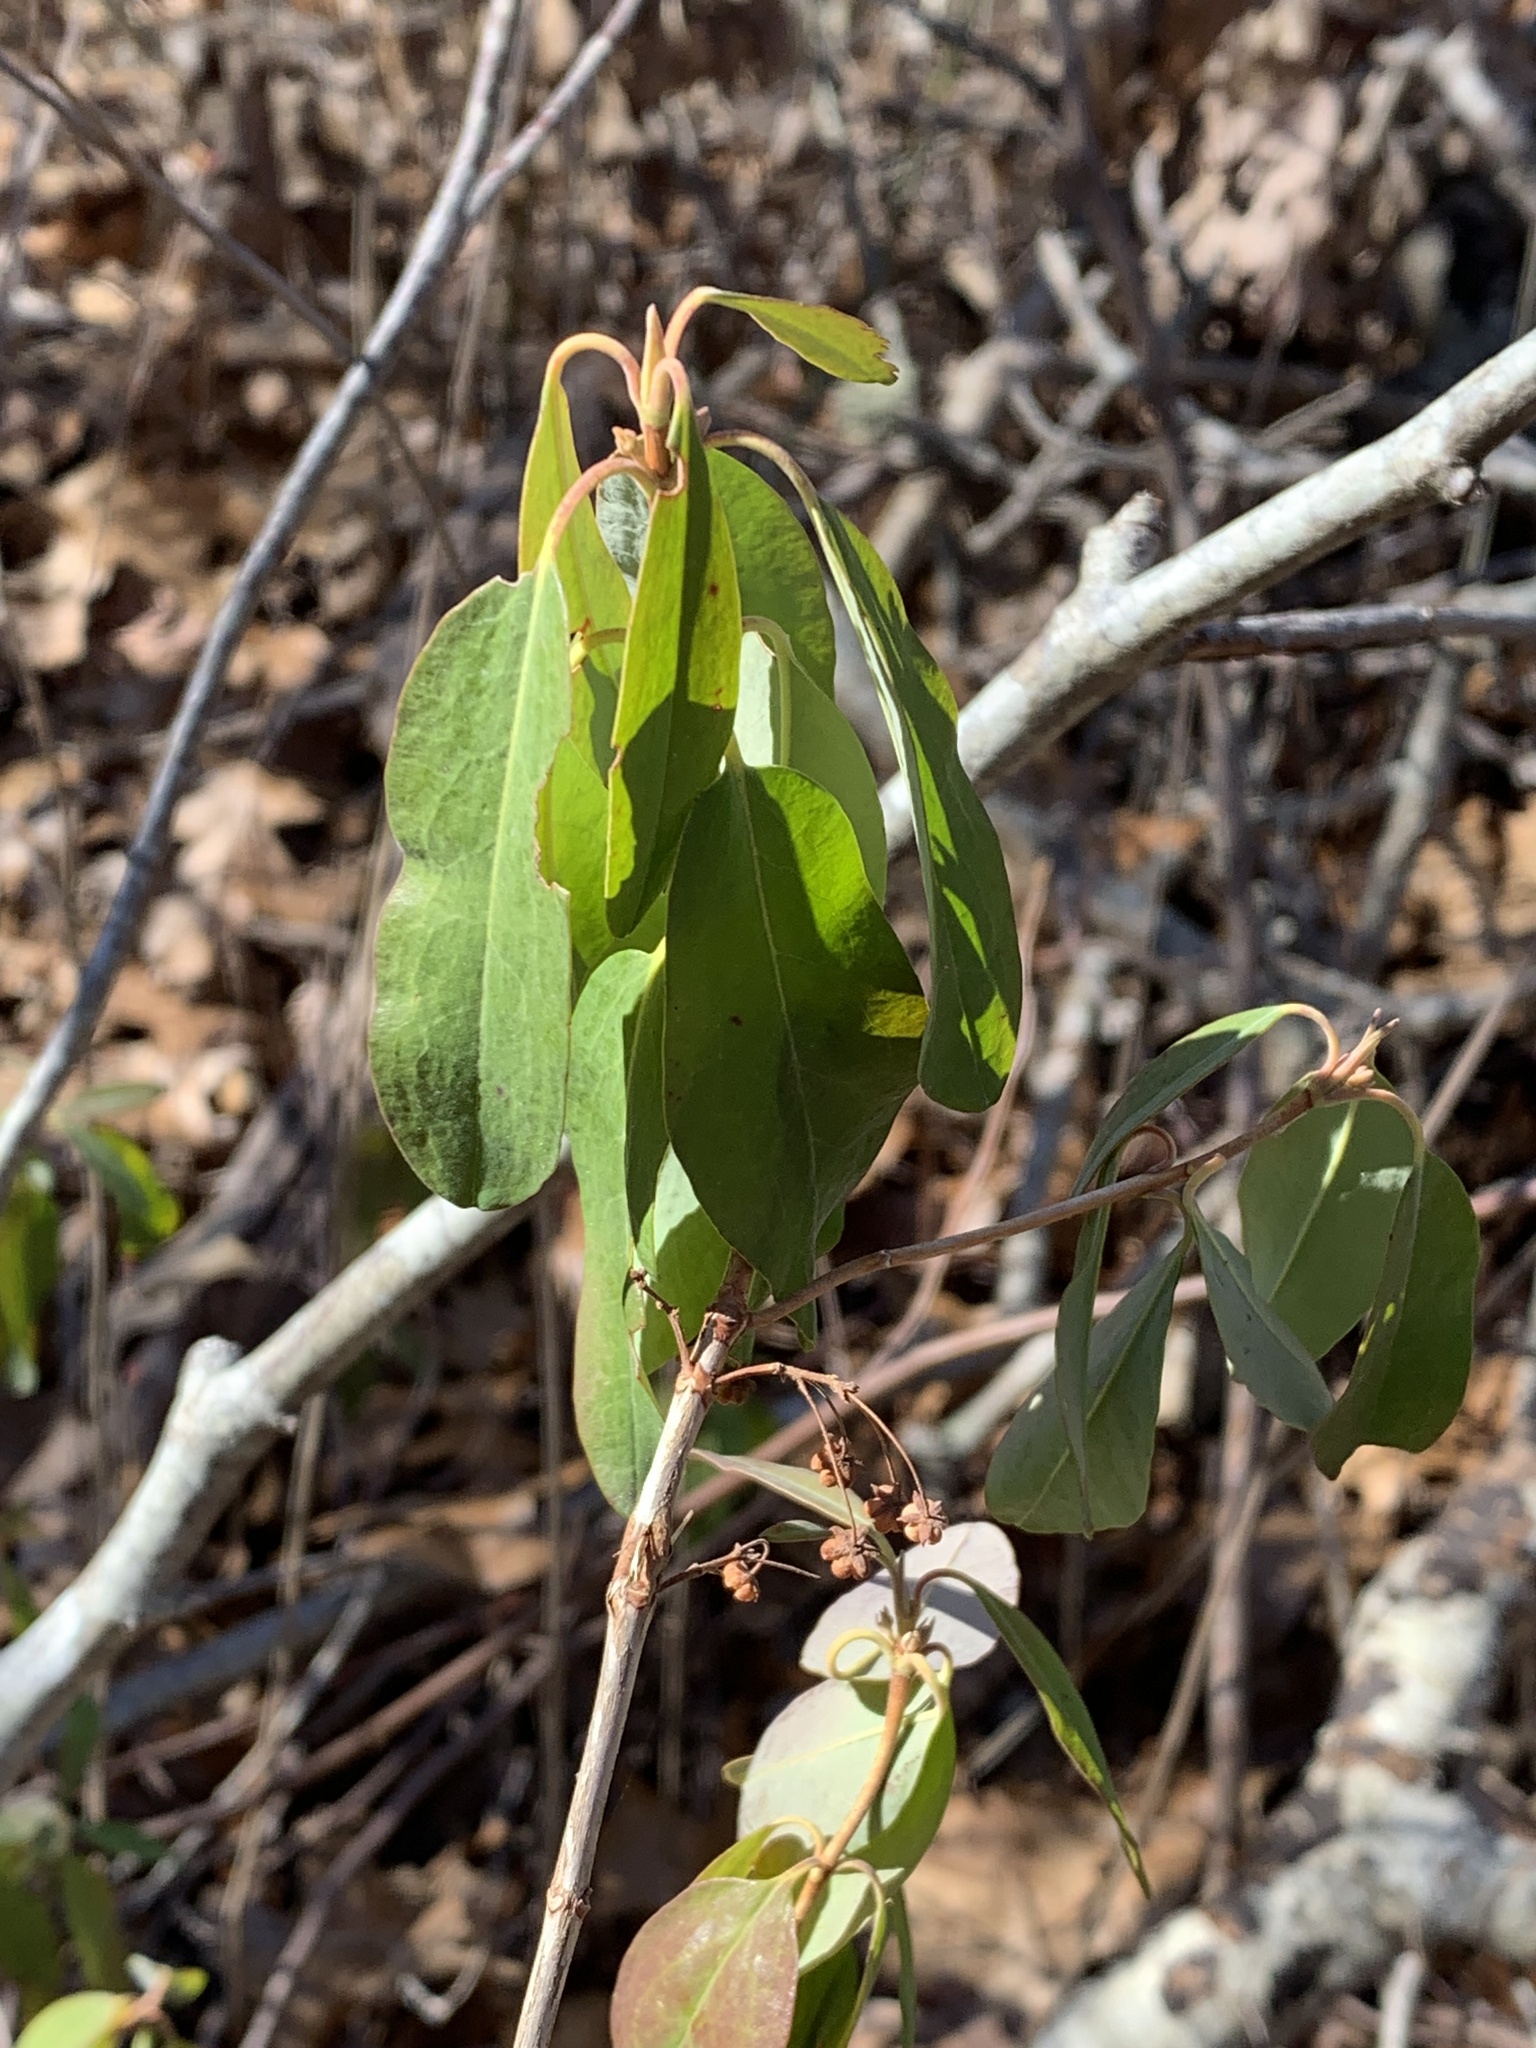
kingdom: Plantae
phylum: Tracheophyta
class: Magnoliopsida
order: Ericales
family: Ericaceae
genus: Kalmia
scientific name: Kalmia angustifolia
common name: Sheep-laurel
